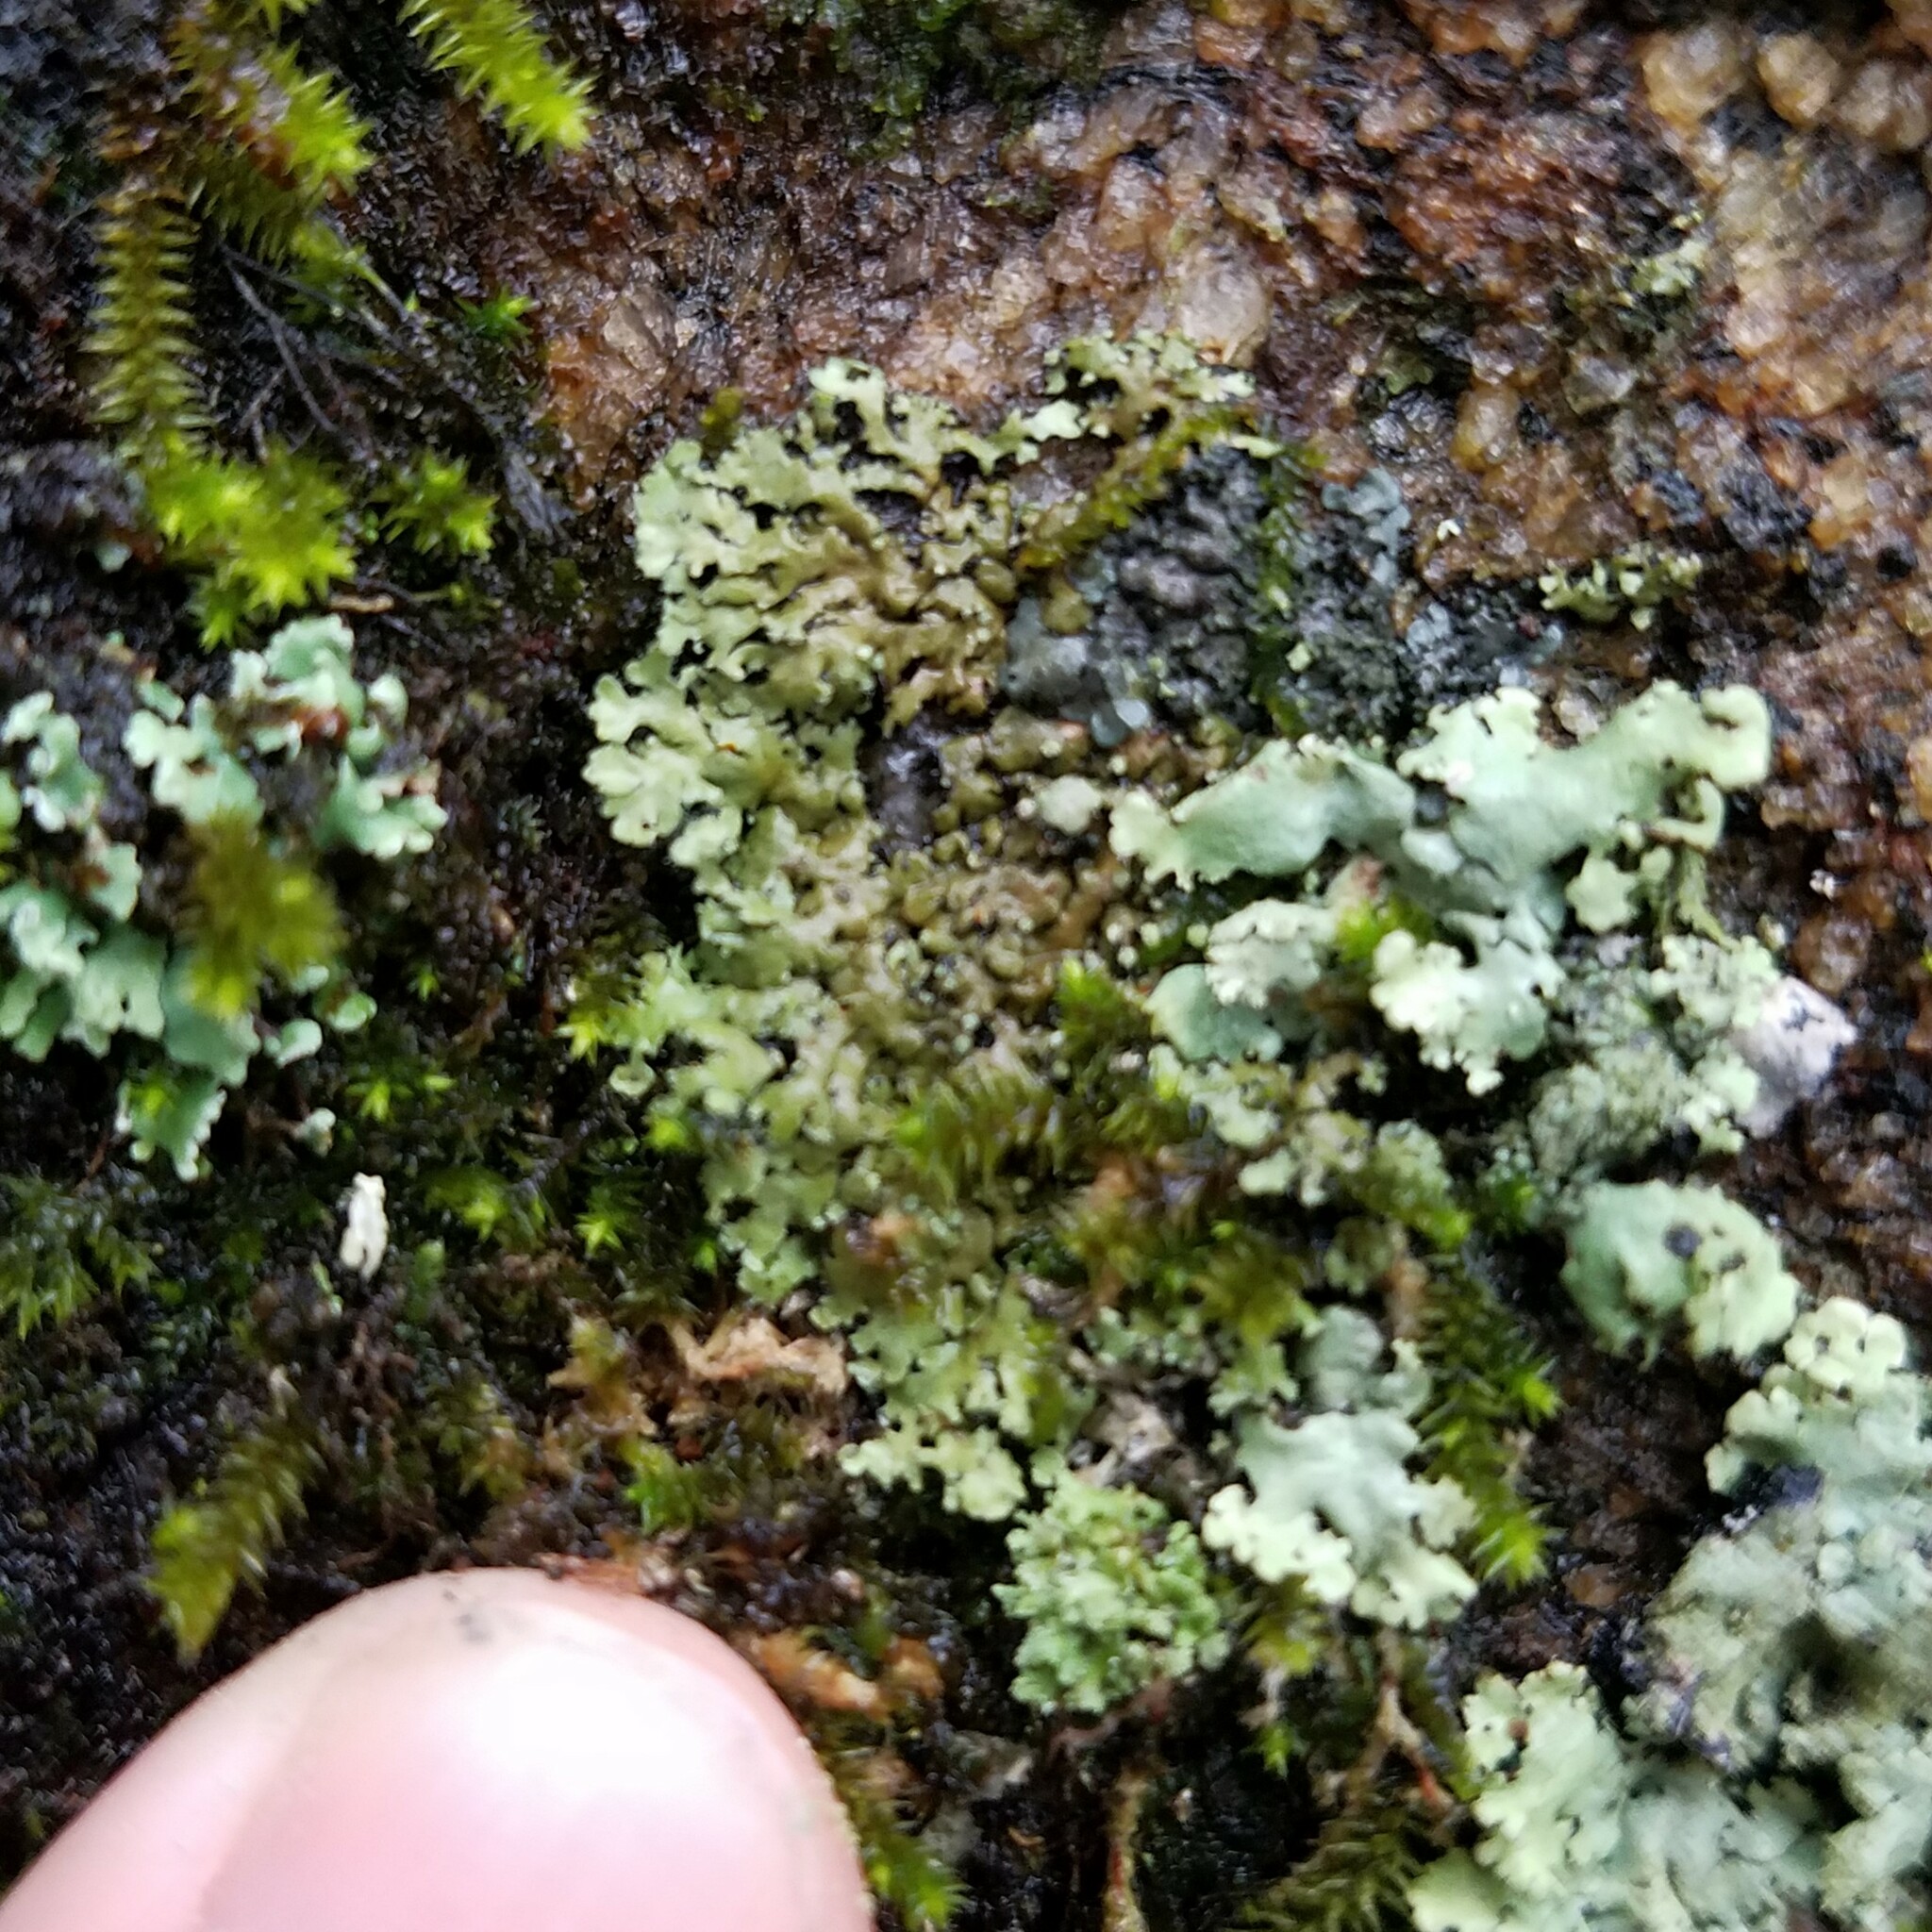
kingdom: Fungi
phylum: Ascomycota
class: Lecanoromycetes
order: Caliciales
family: Physciaceae
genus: Phaeophyscia
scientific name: Phaeophyscia rubropulchra
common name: Orange-cored shadow lichen
